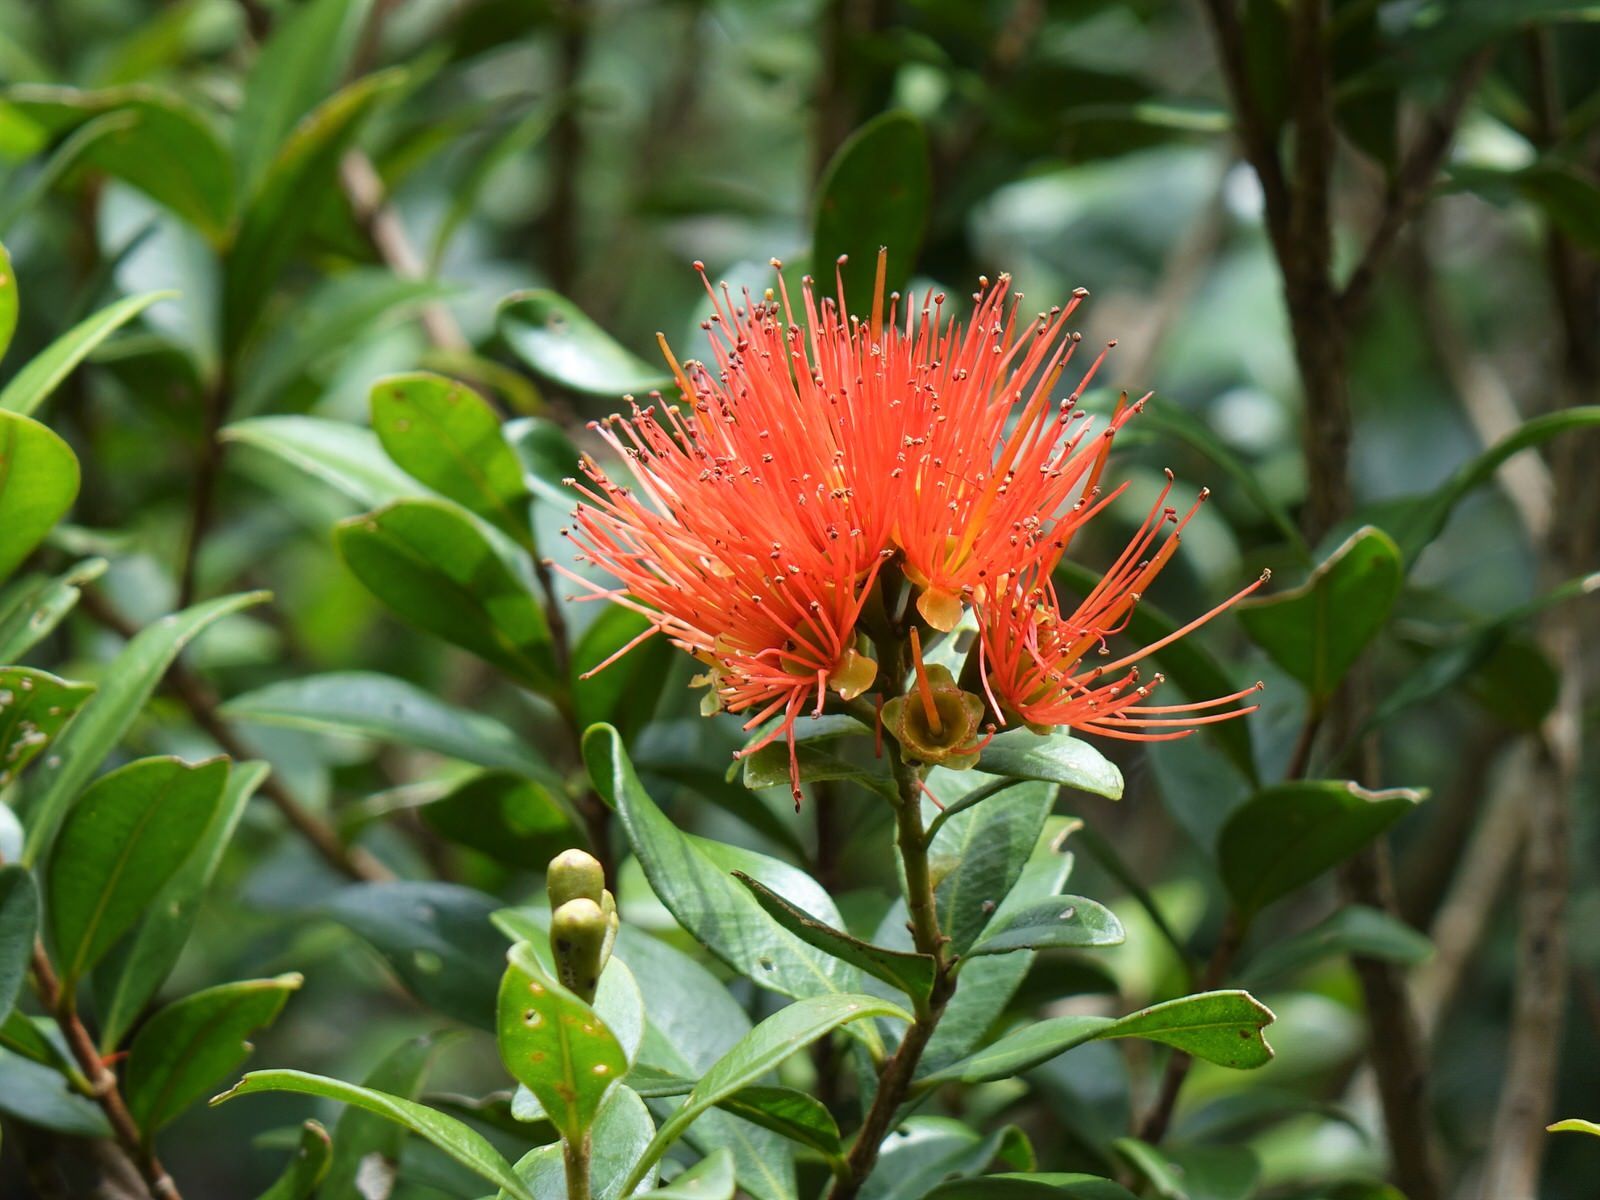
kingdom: Plantae
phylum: Tracheophyta
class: Magnoliopsida
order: Myrtales
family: Myrtaceae
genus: Metrosideros
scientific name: Metrosideros fulgens
